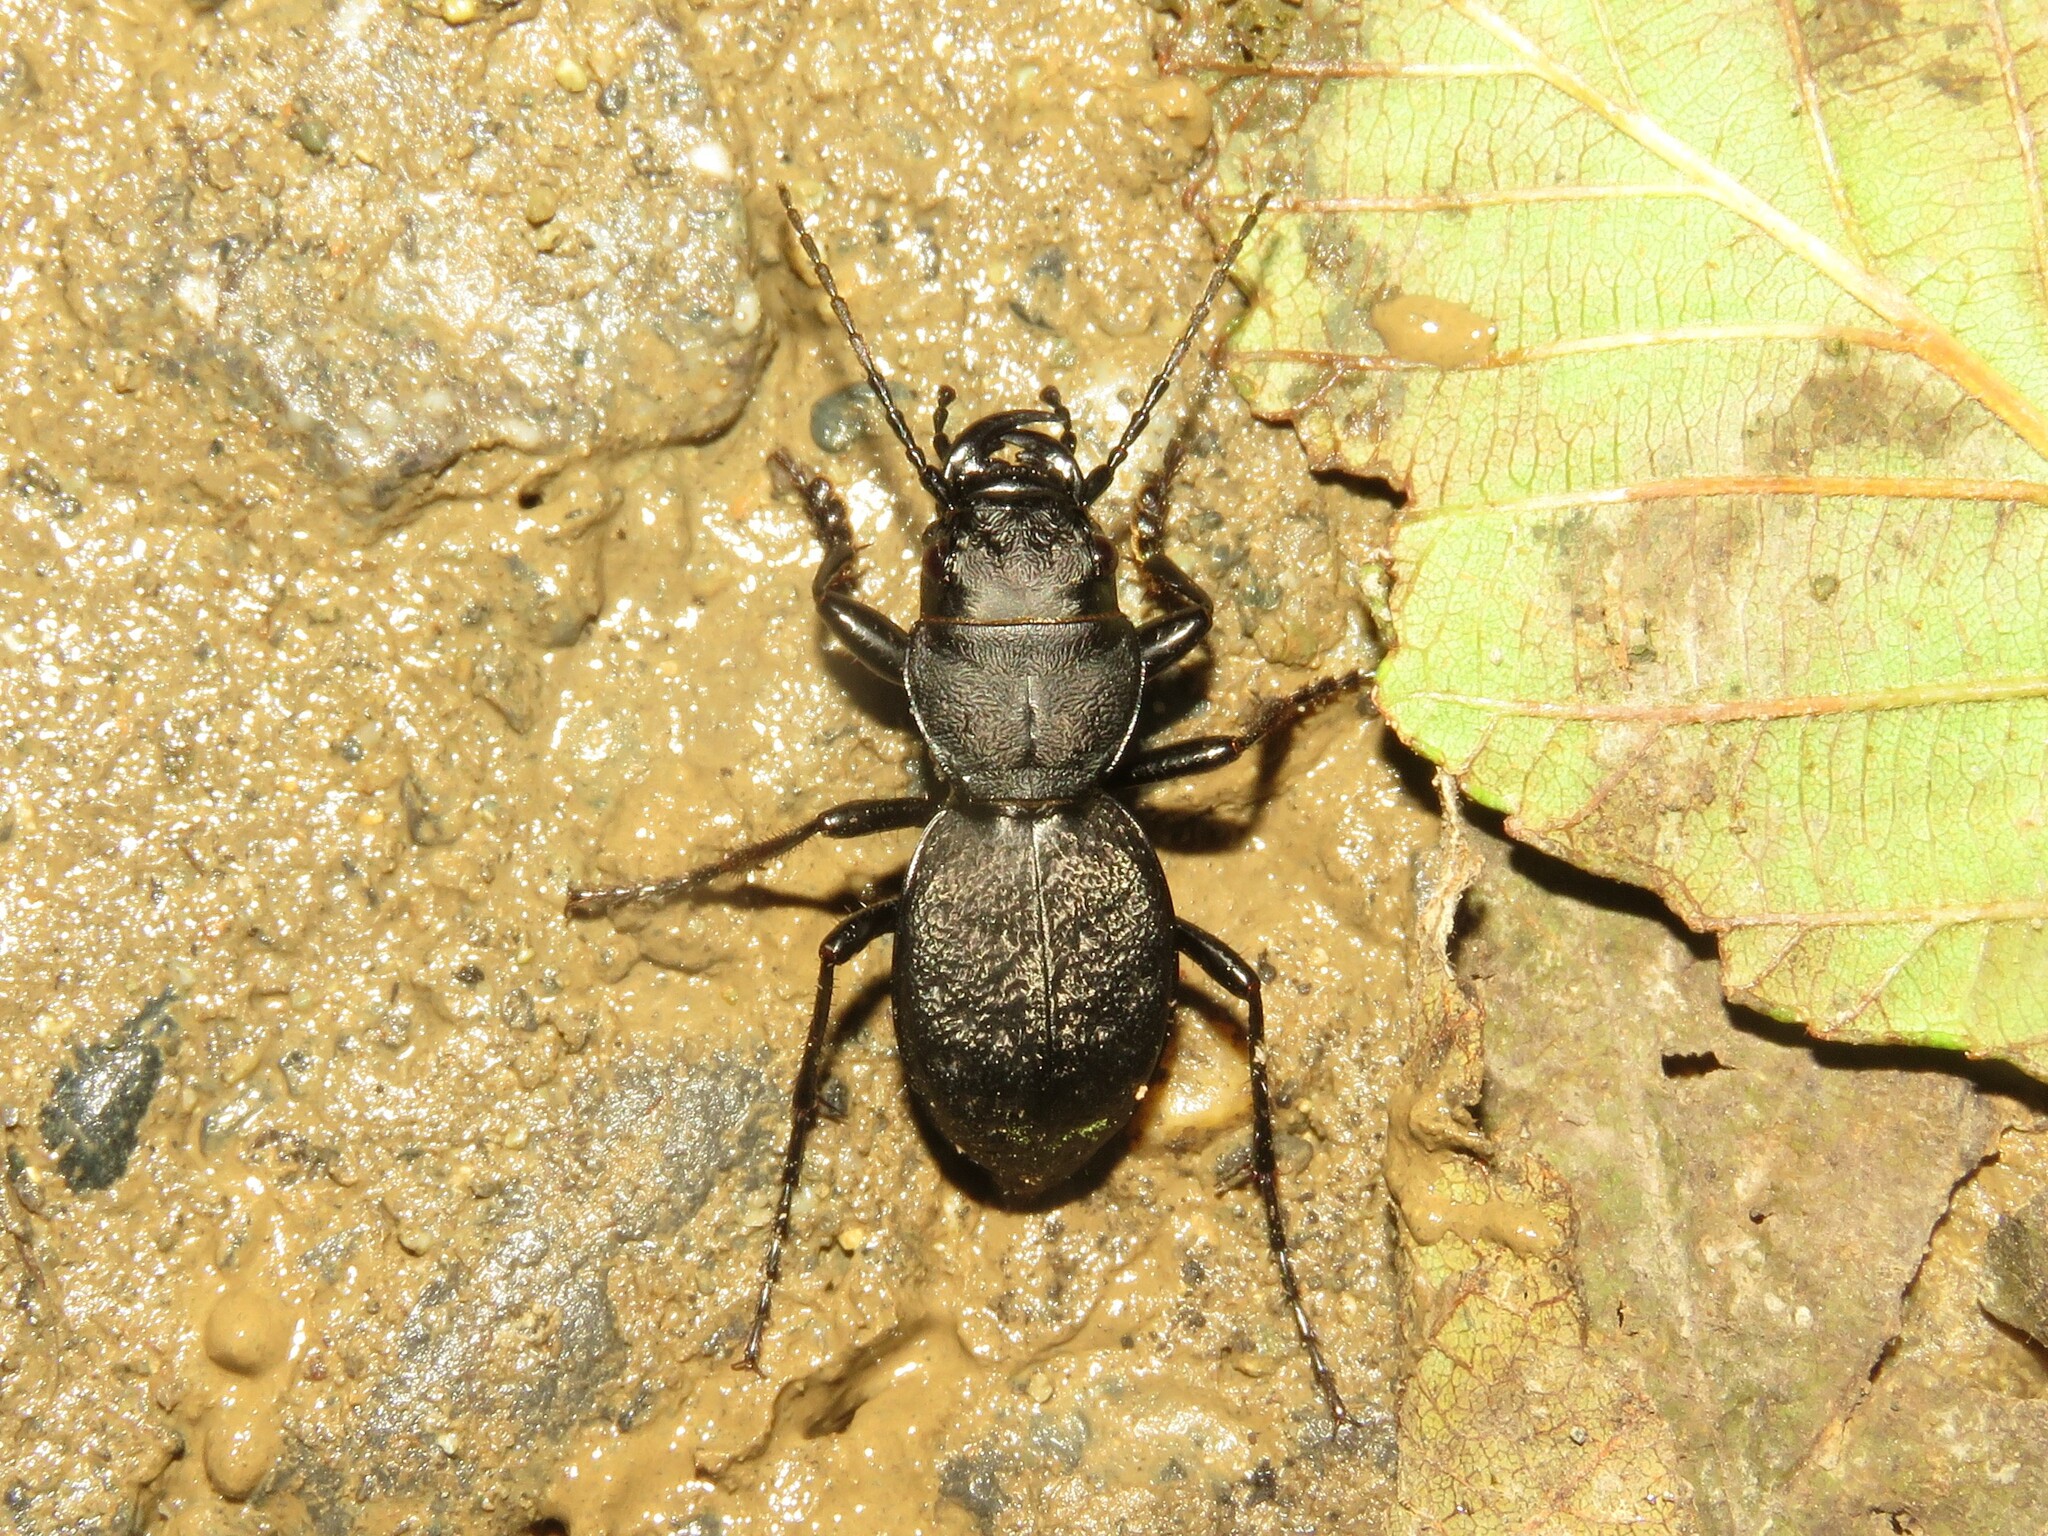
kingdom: Animalia
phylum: Arthropoda
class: Insecta
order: Coleoptera
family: Carabidae
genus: Omus
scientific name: Omus dejeanii
